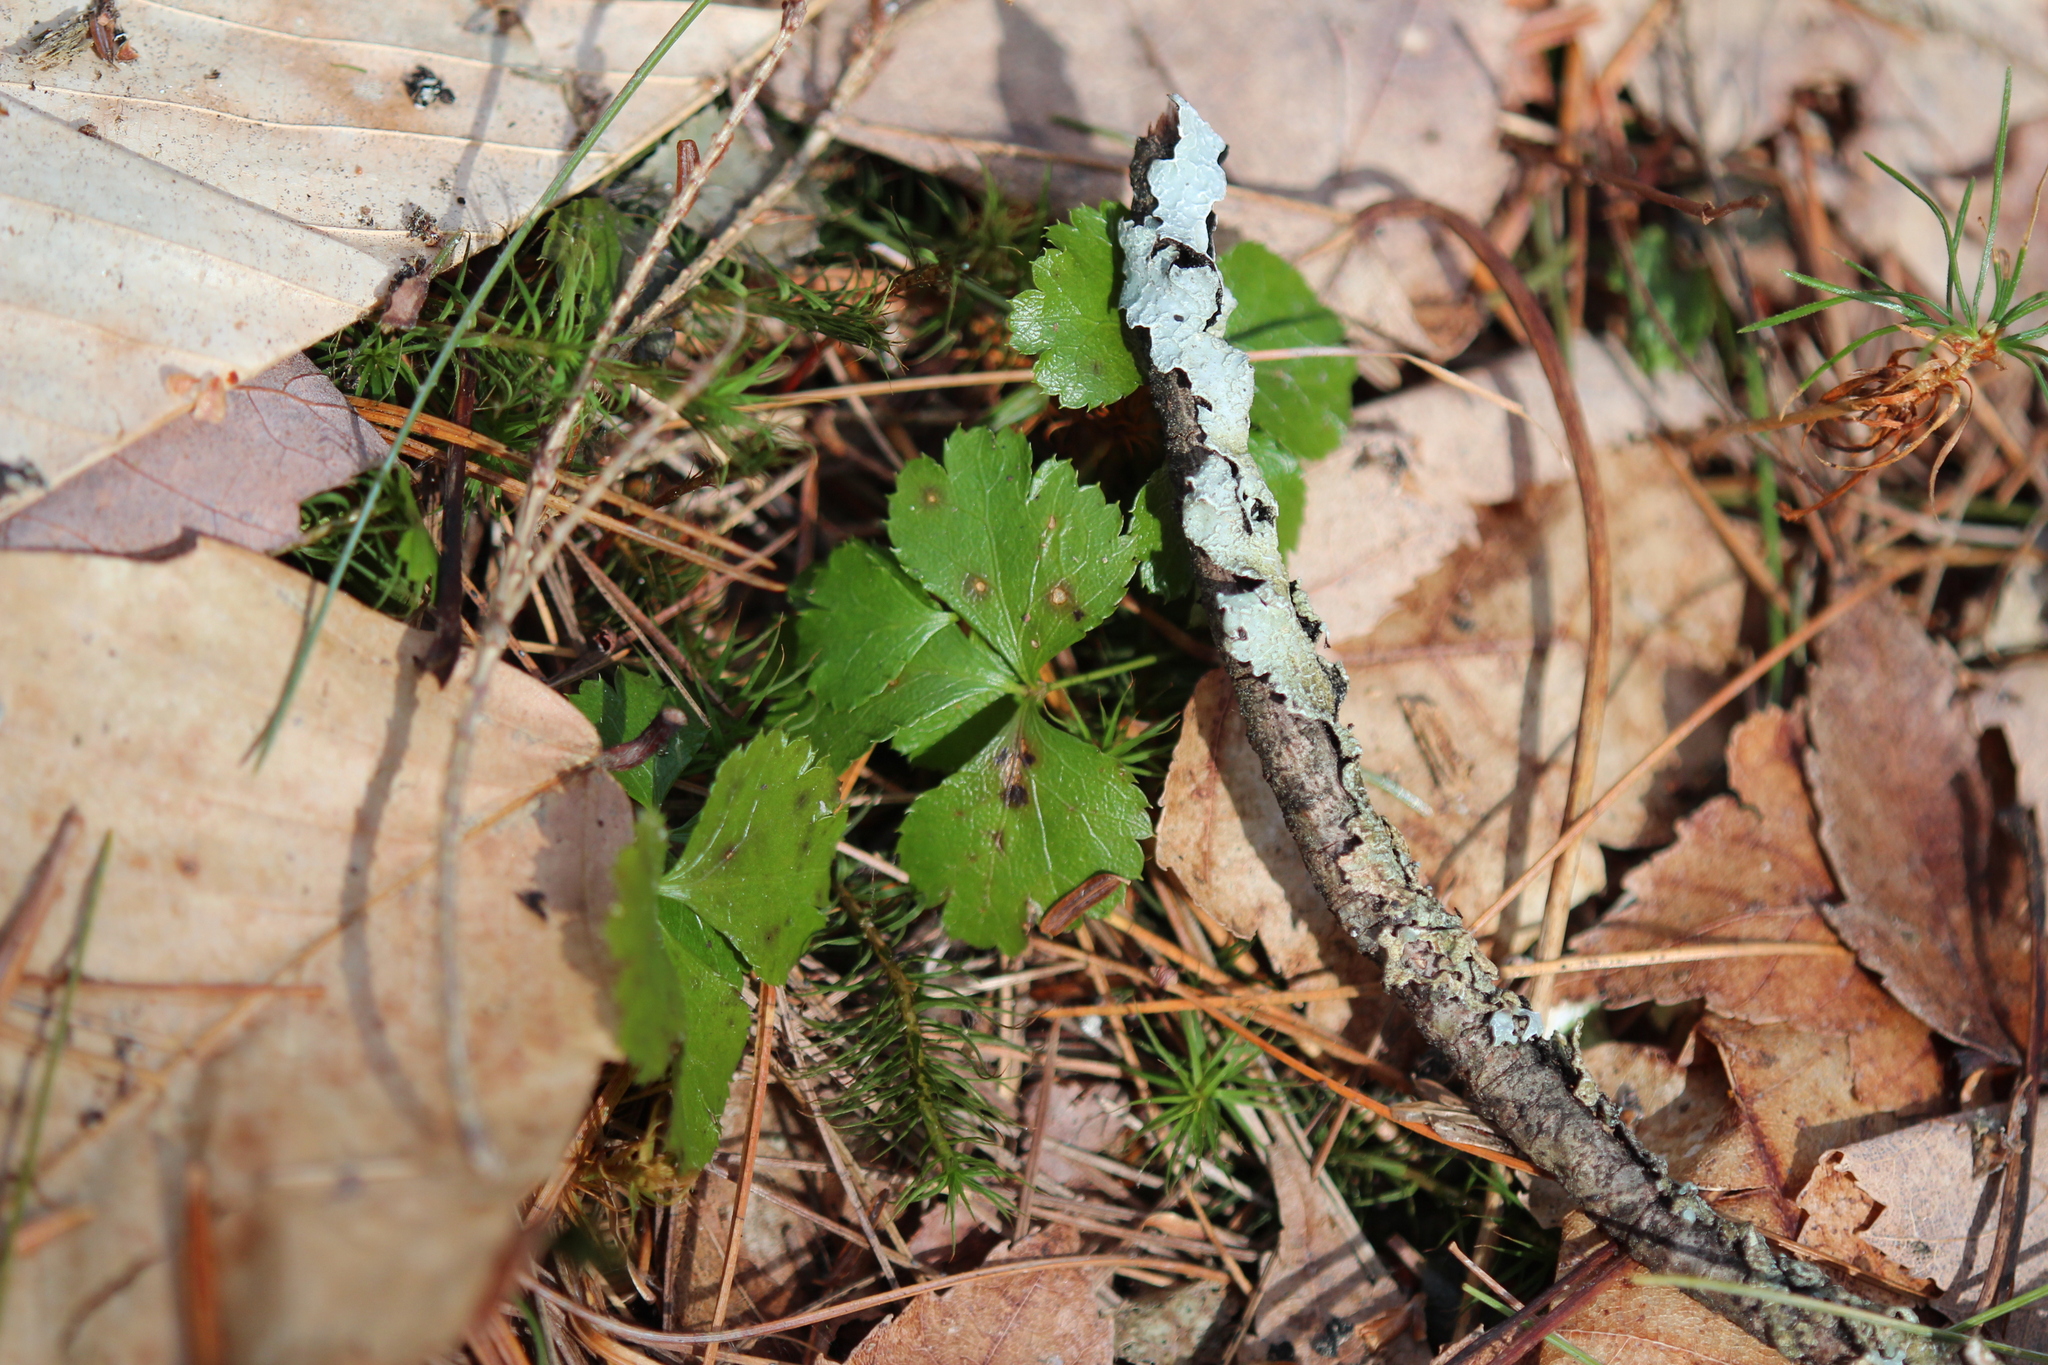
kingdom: Plantae
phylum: Tracheophyta
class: Magnoliopsida
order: Ranunculales
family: Ranunculaceae
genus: Coptis
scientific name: Coptis trifolia
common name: Canker-root
